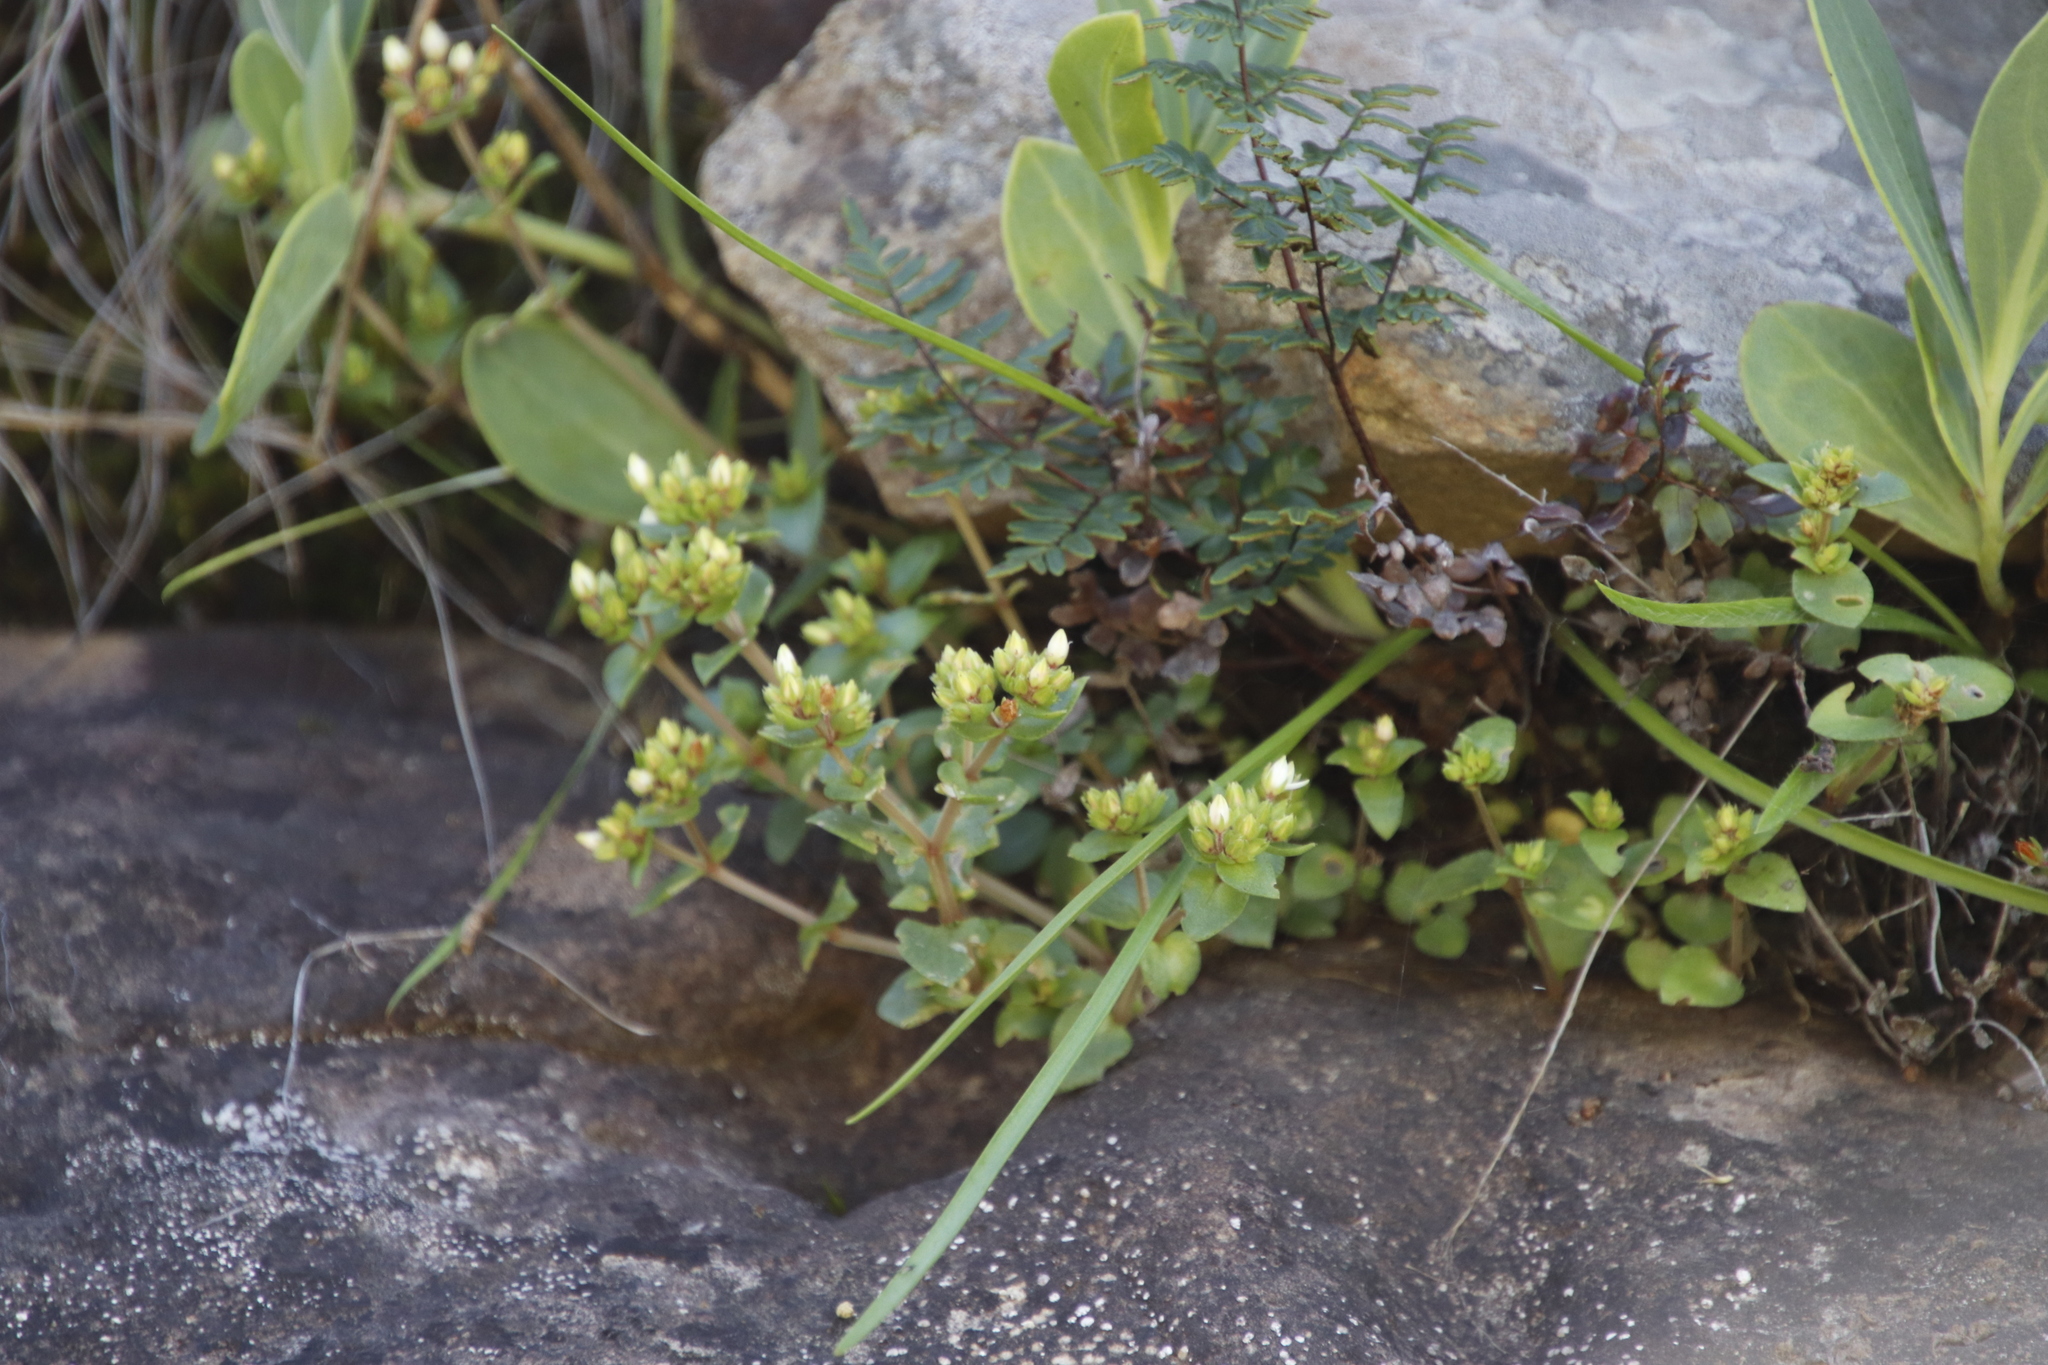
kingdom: Plantae
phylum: Tracheophyta
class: Magnoliopsida
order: Saxifragales
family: Crassulaceae
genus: Crassula
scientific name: Crassula pellucida
